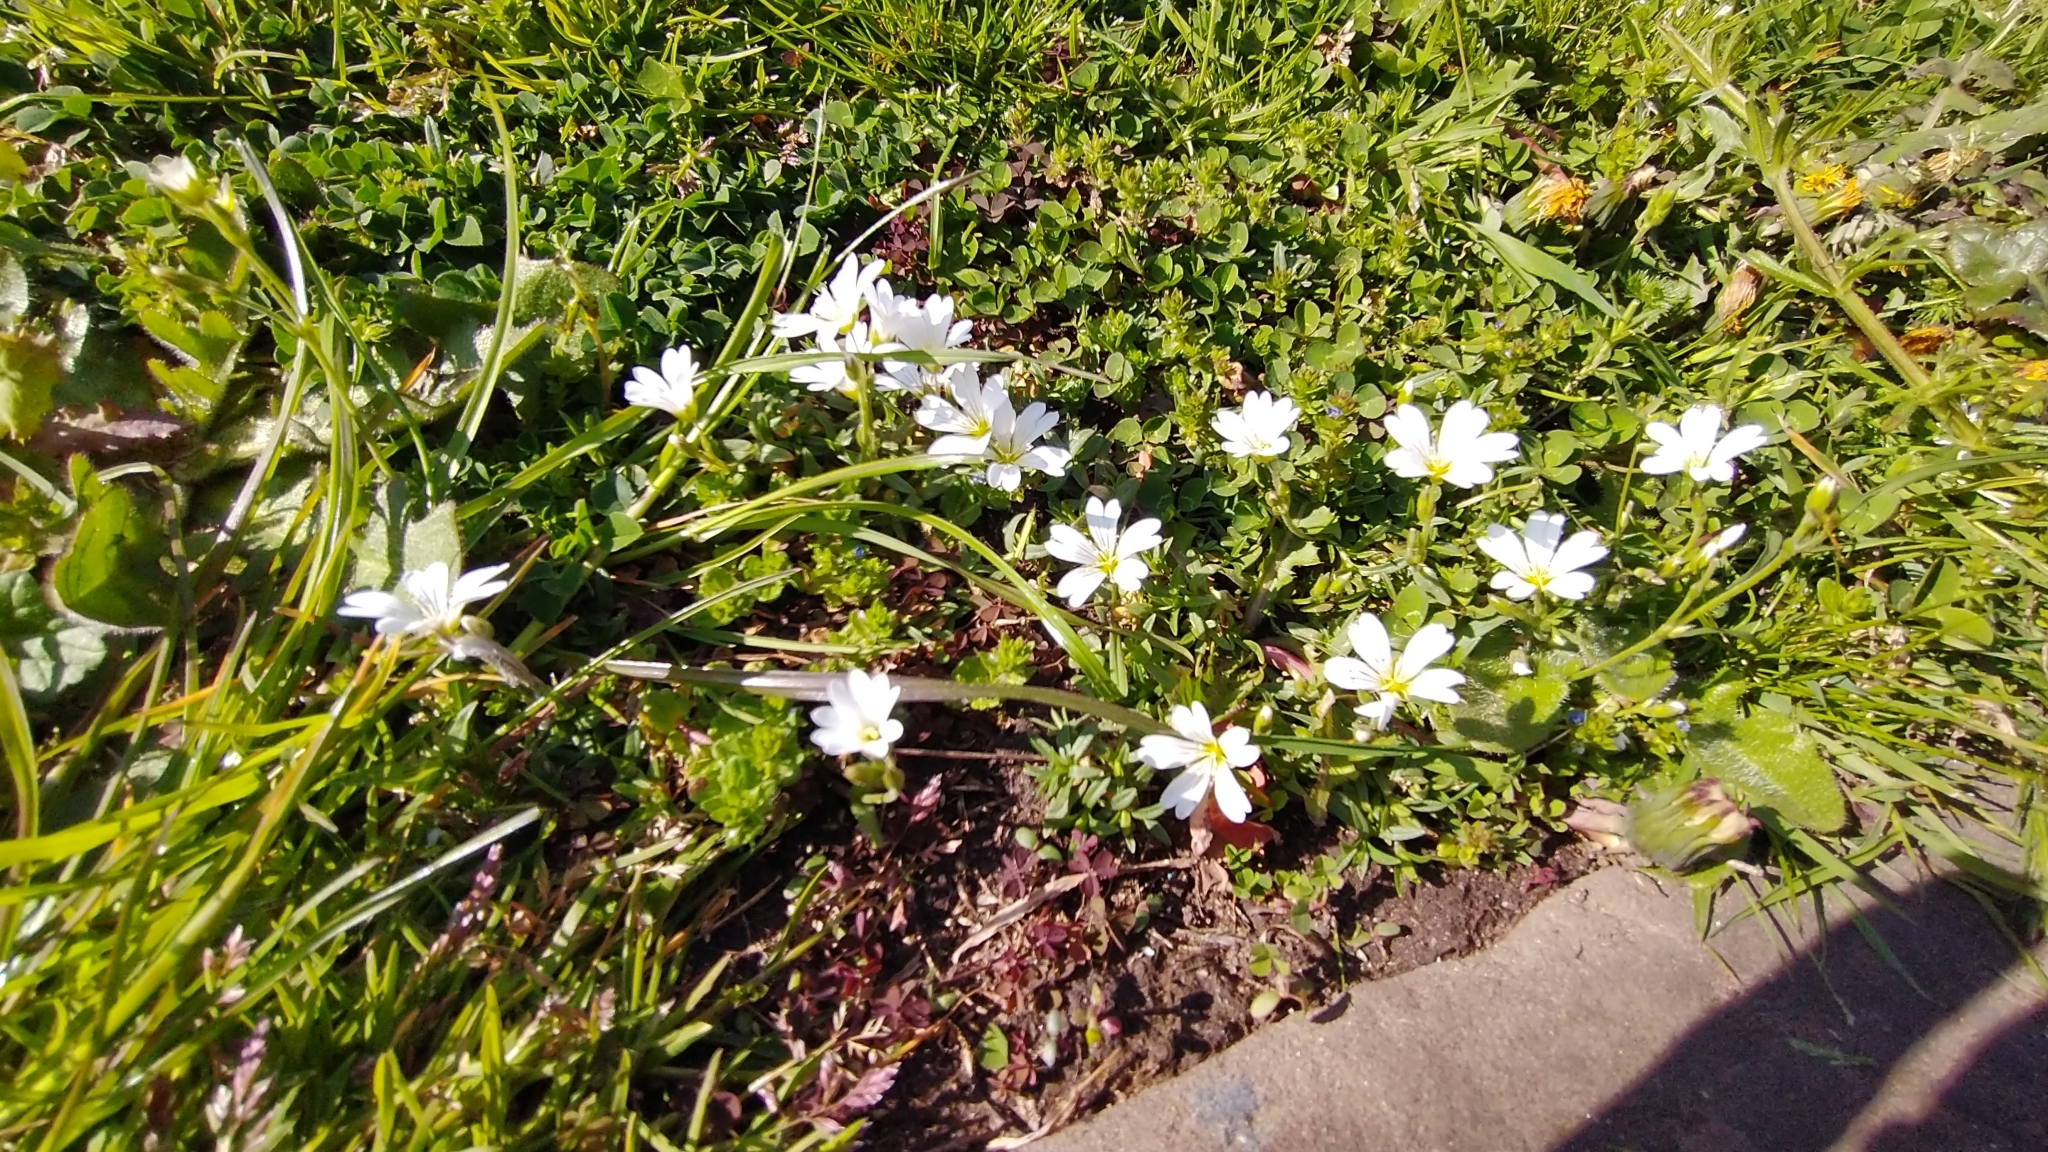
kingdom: Plantae
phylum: Tracheophyta
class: Magnoliopsida
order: Caryophyllales
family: Caryophyllaceae
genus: Cerastium
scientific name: Cerastium arvense
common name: Field mouse-ear
